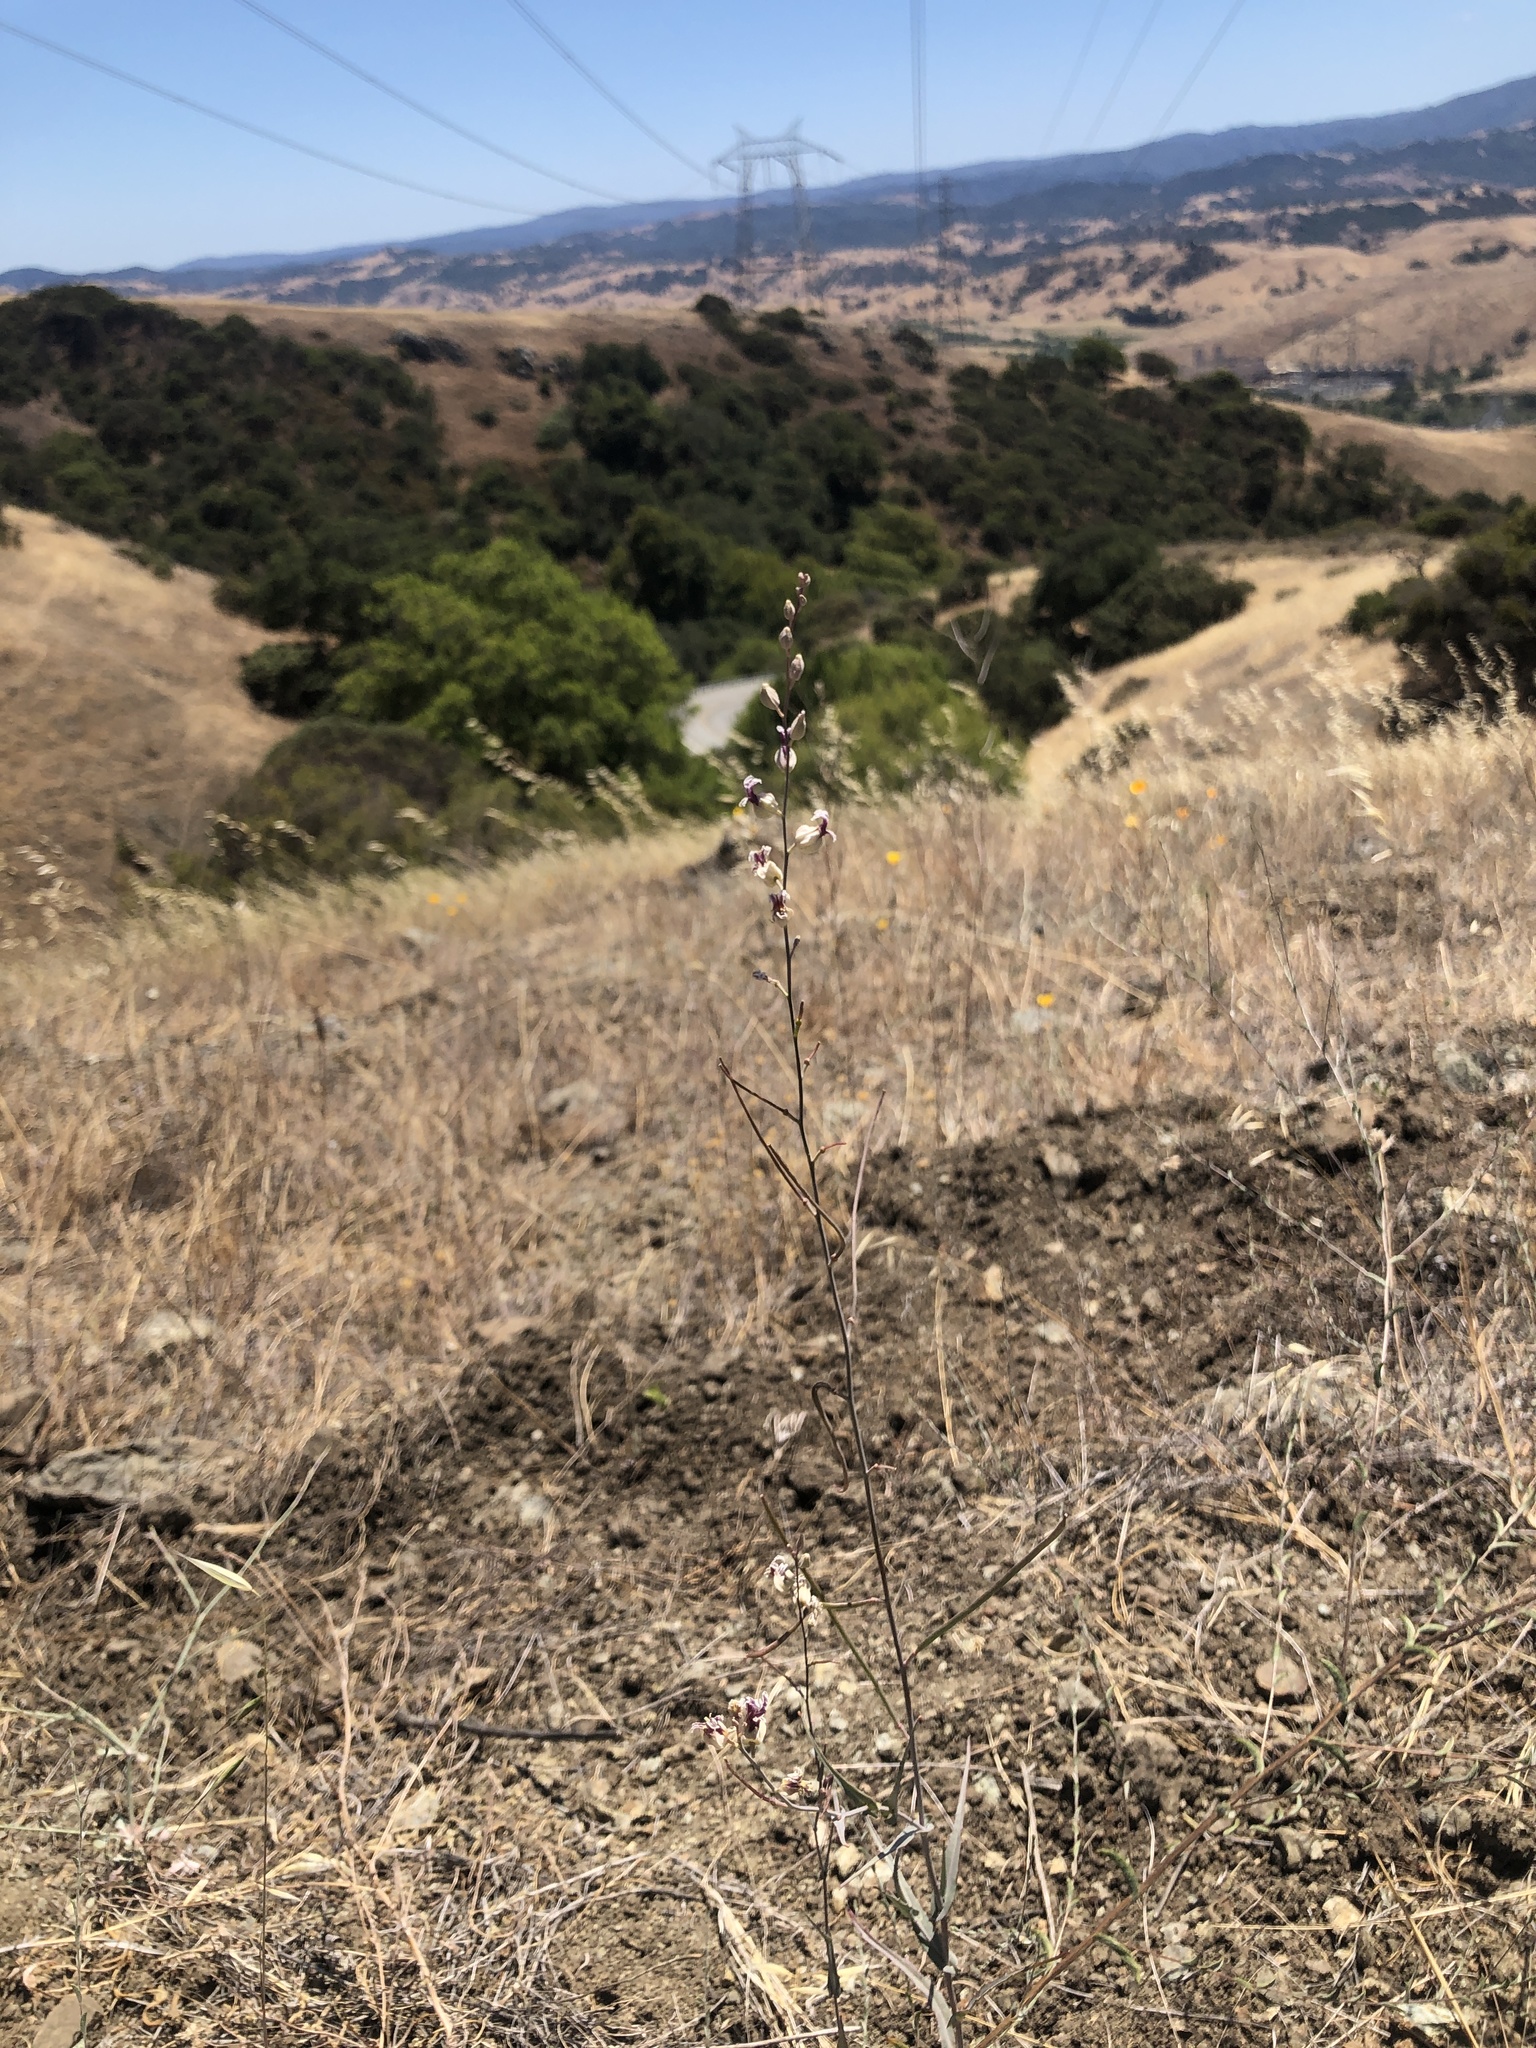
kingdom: Plantae
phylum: Tracheophyta
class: Magnoliopsida
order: Brassicales
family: Brassicaceae
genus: Streptanthus
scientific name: Streptanthus glandulosus
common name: Jewel-flower
